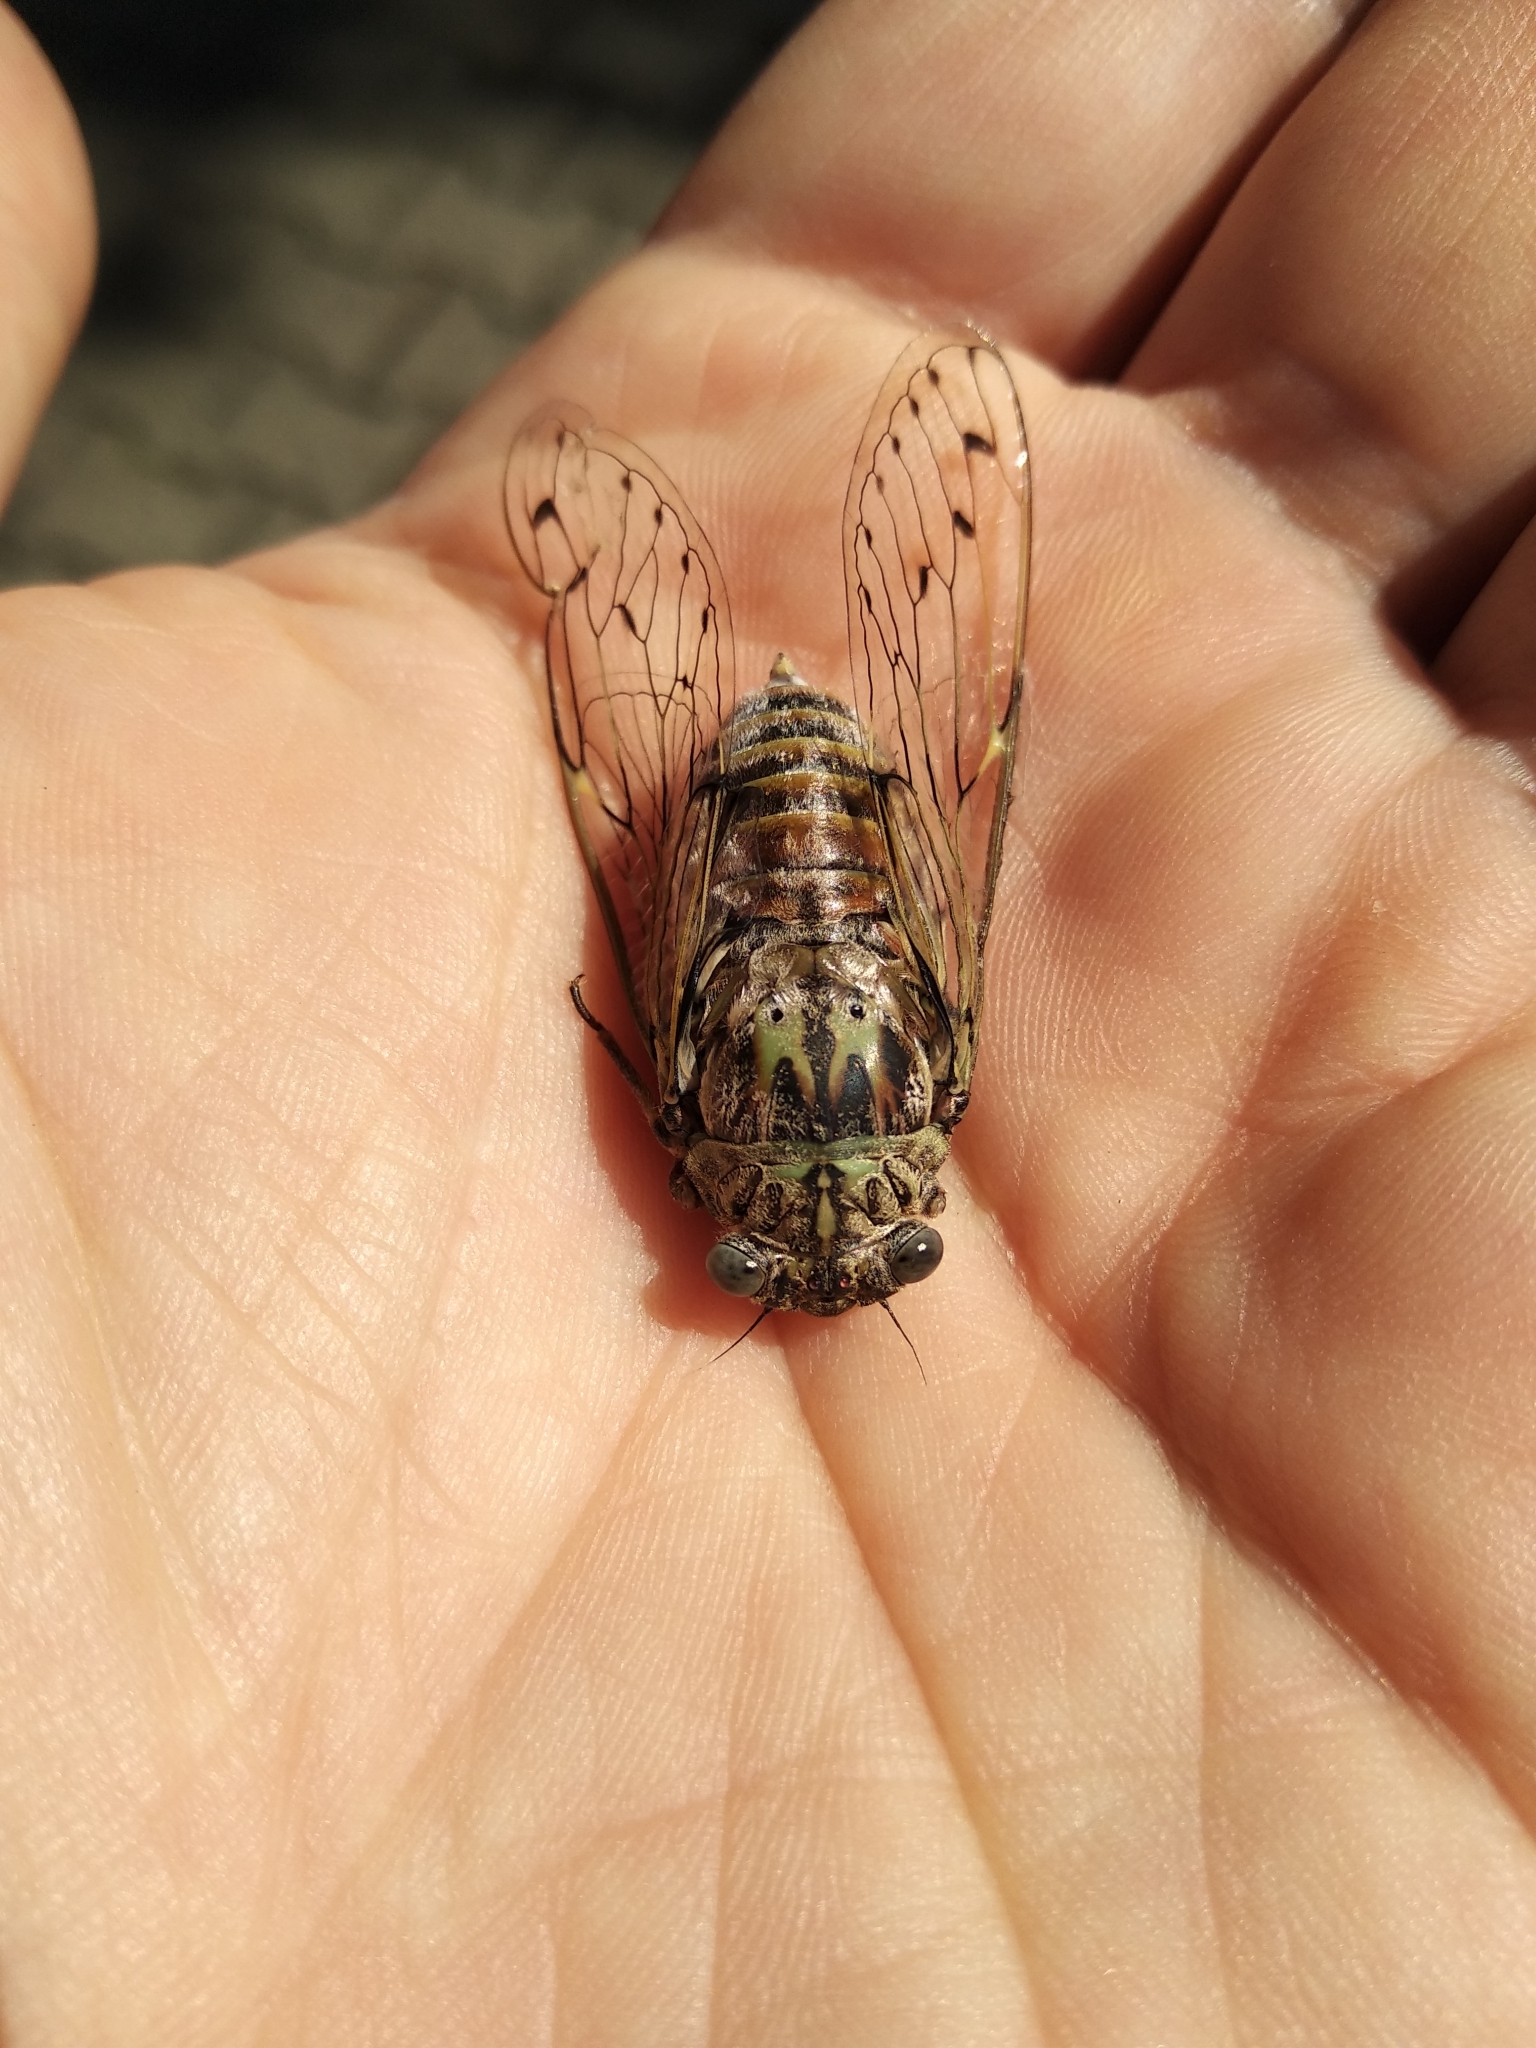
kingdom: Animalia
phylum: Arthropoda
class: Insecta
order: Hemiptera
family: Cicadidae
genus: Cicada
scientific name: Cicada orni
